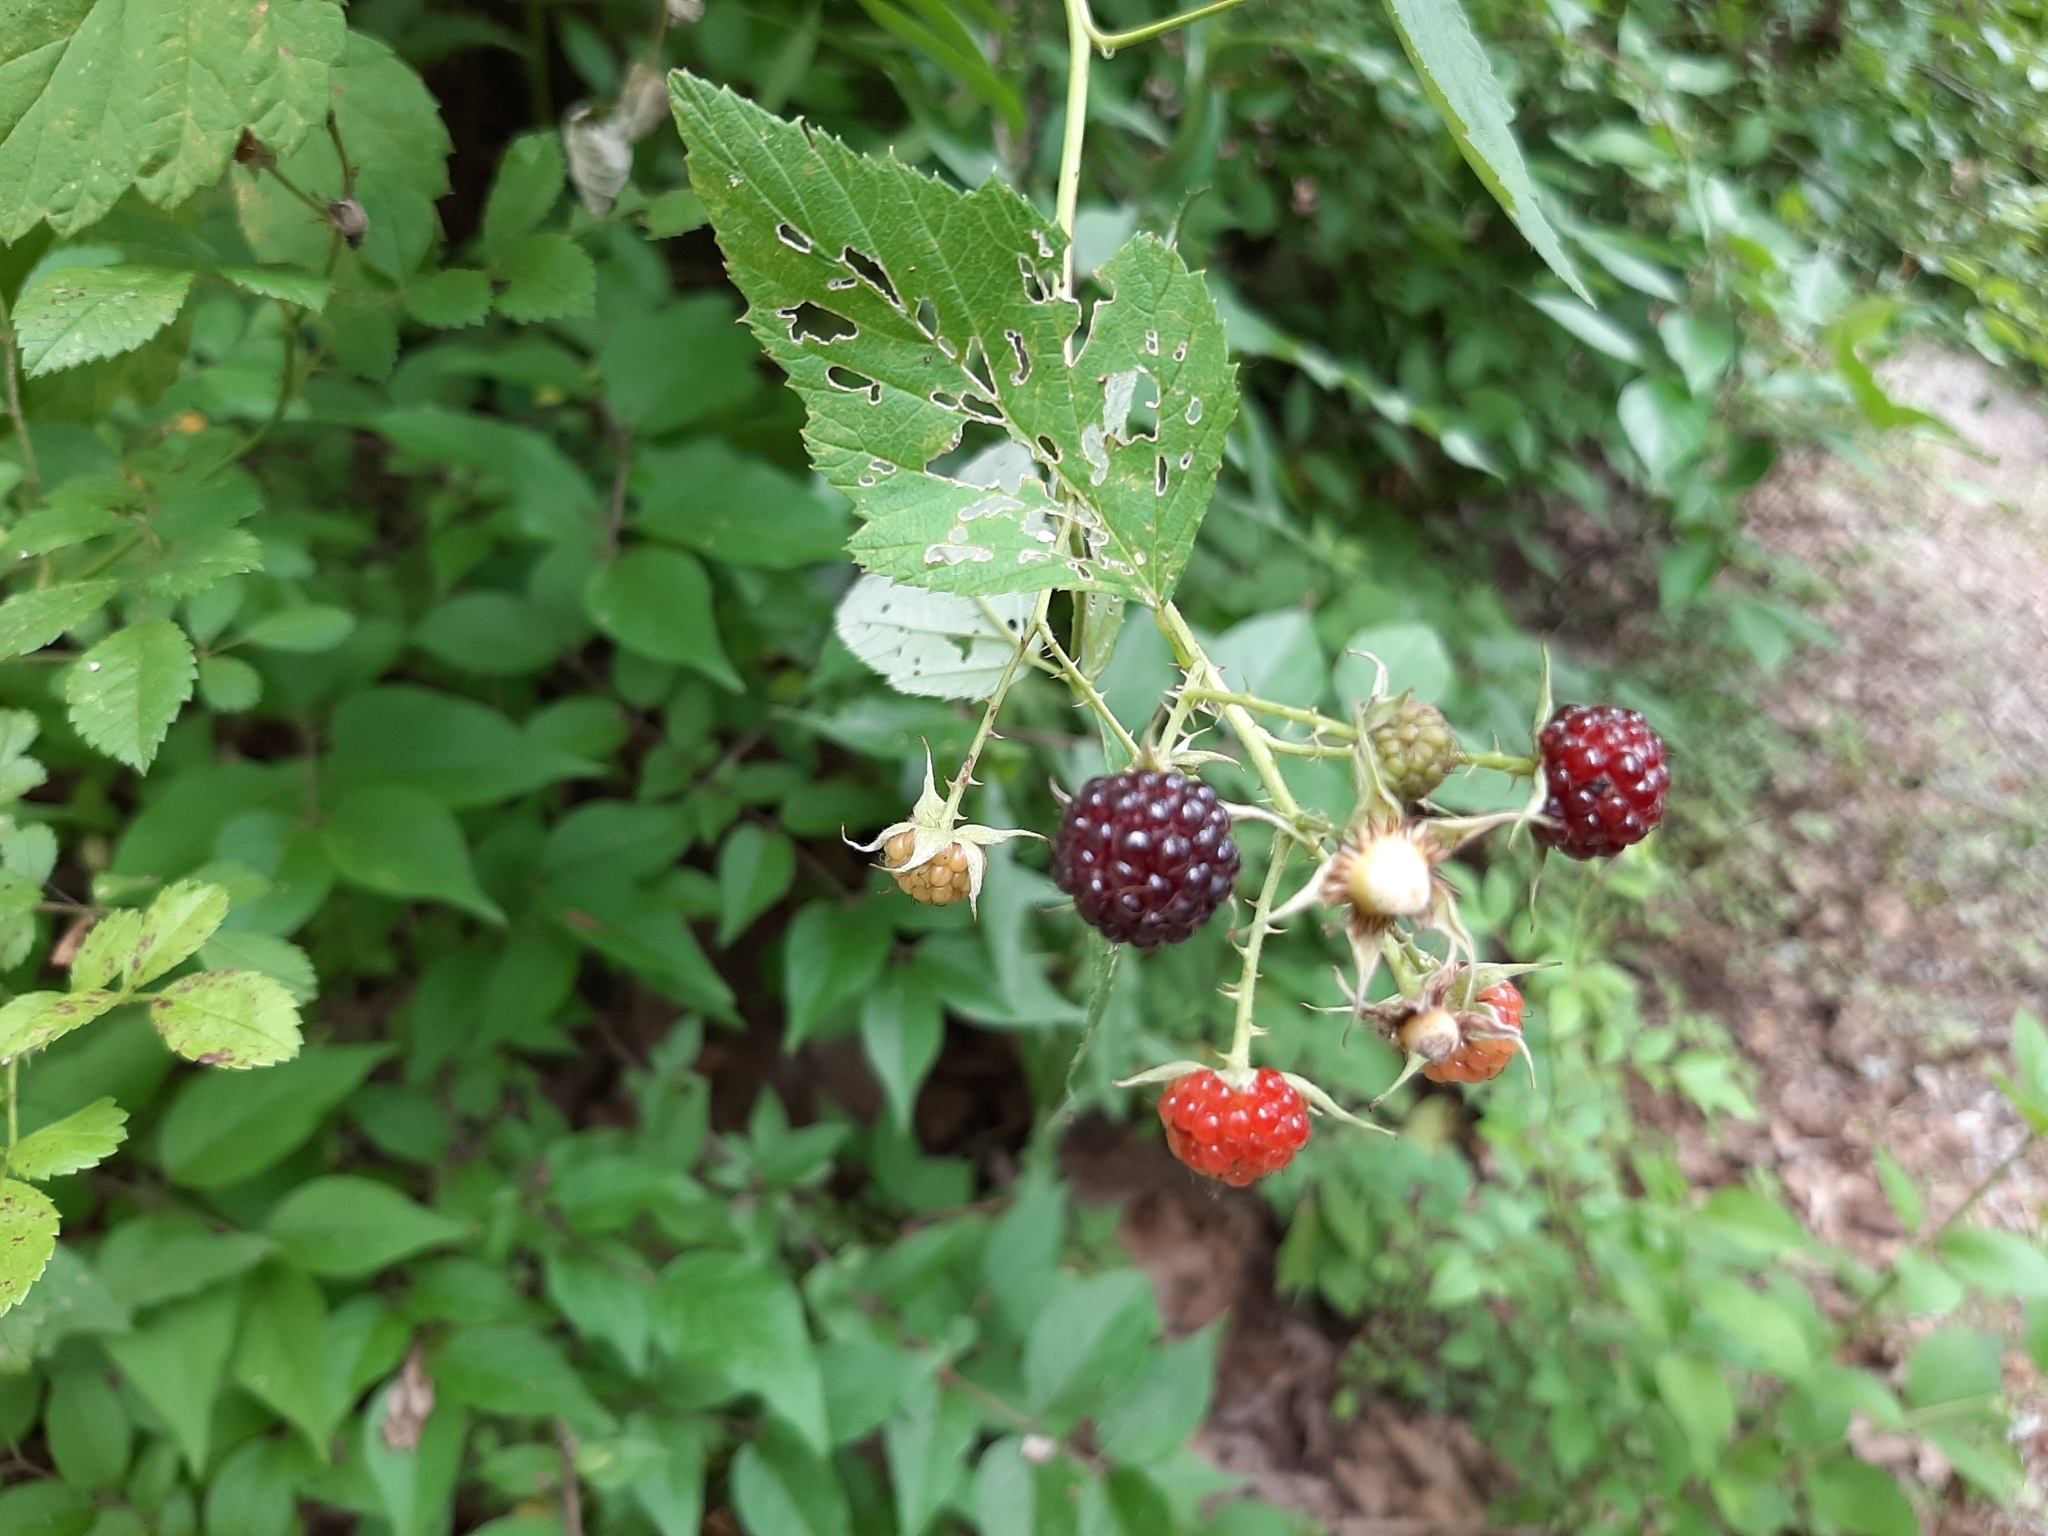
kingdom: Plantae
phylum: Tracheophyta
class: Magnoliopsida
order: Rosales
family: Rosaceae
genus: Rubus
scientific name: Rubus occidentalis
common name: Black raspberry
